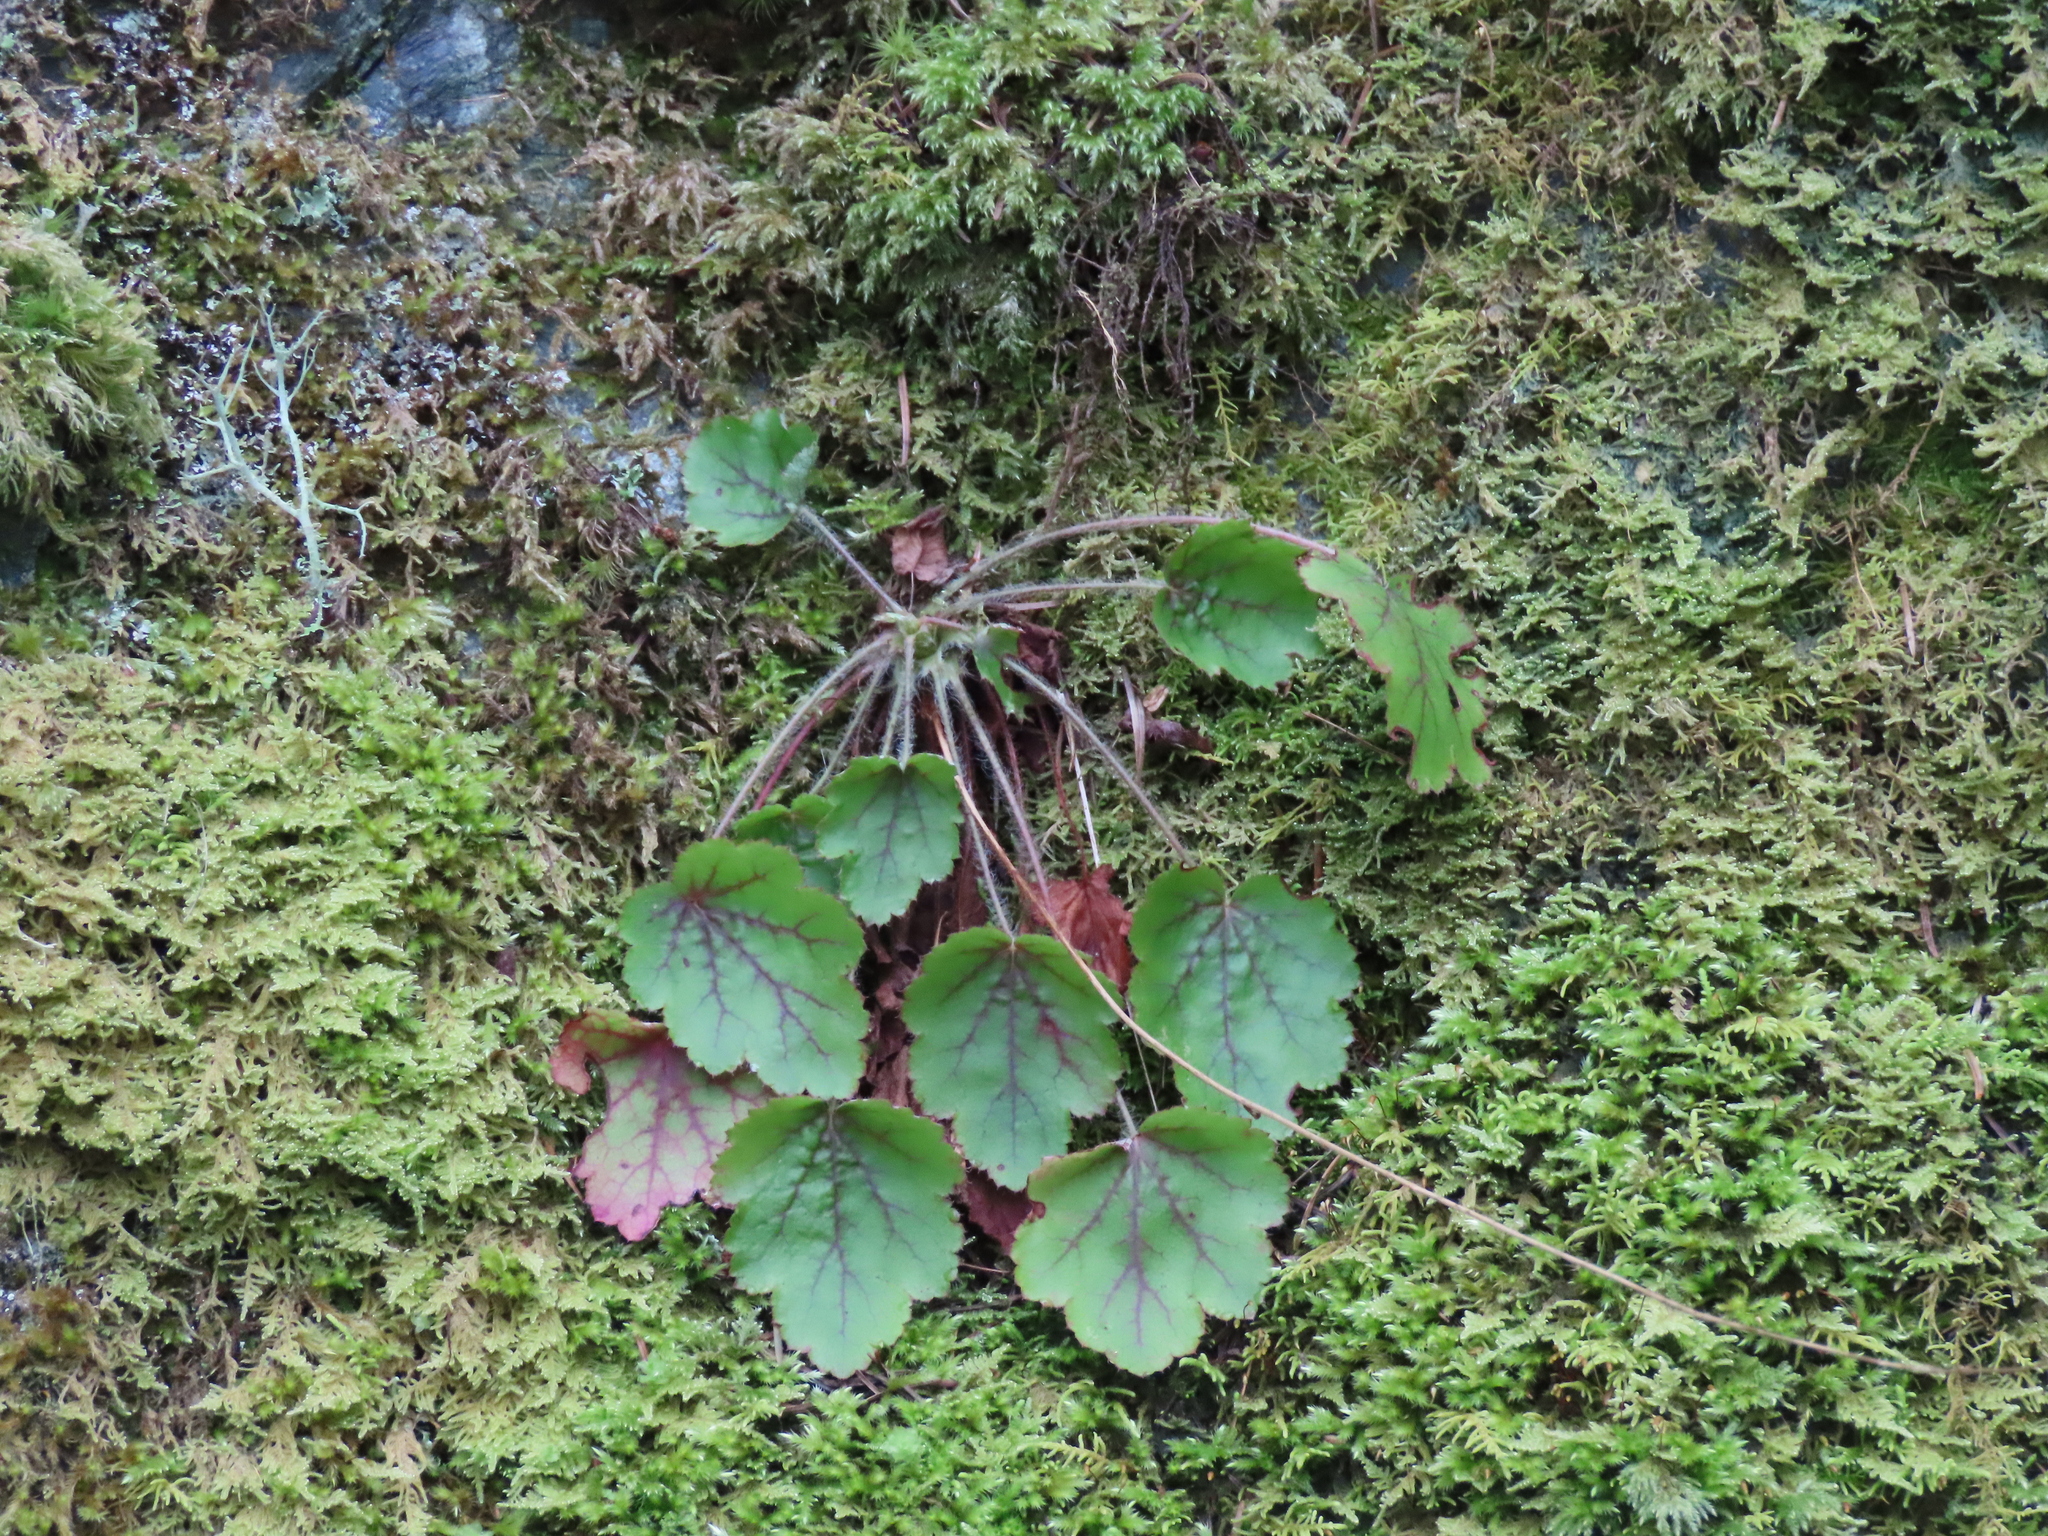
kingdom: Plantae
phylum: Tracheophyta
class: Magnoliopsida
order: Saxifragales
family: Saxifragaceae
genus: Heuchera
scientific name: Heuchera micrantha
